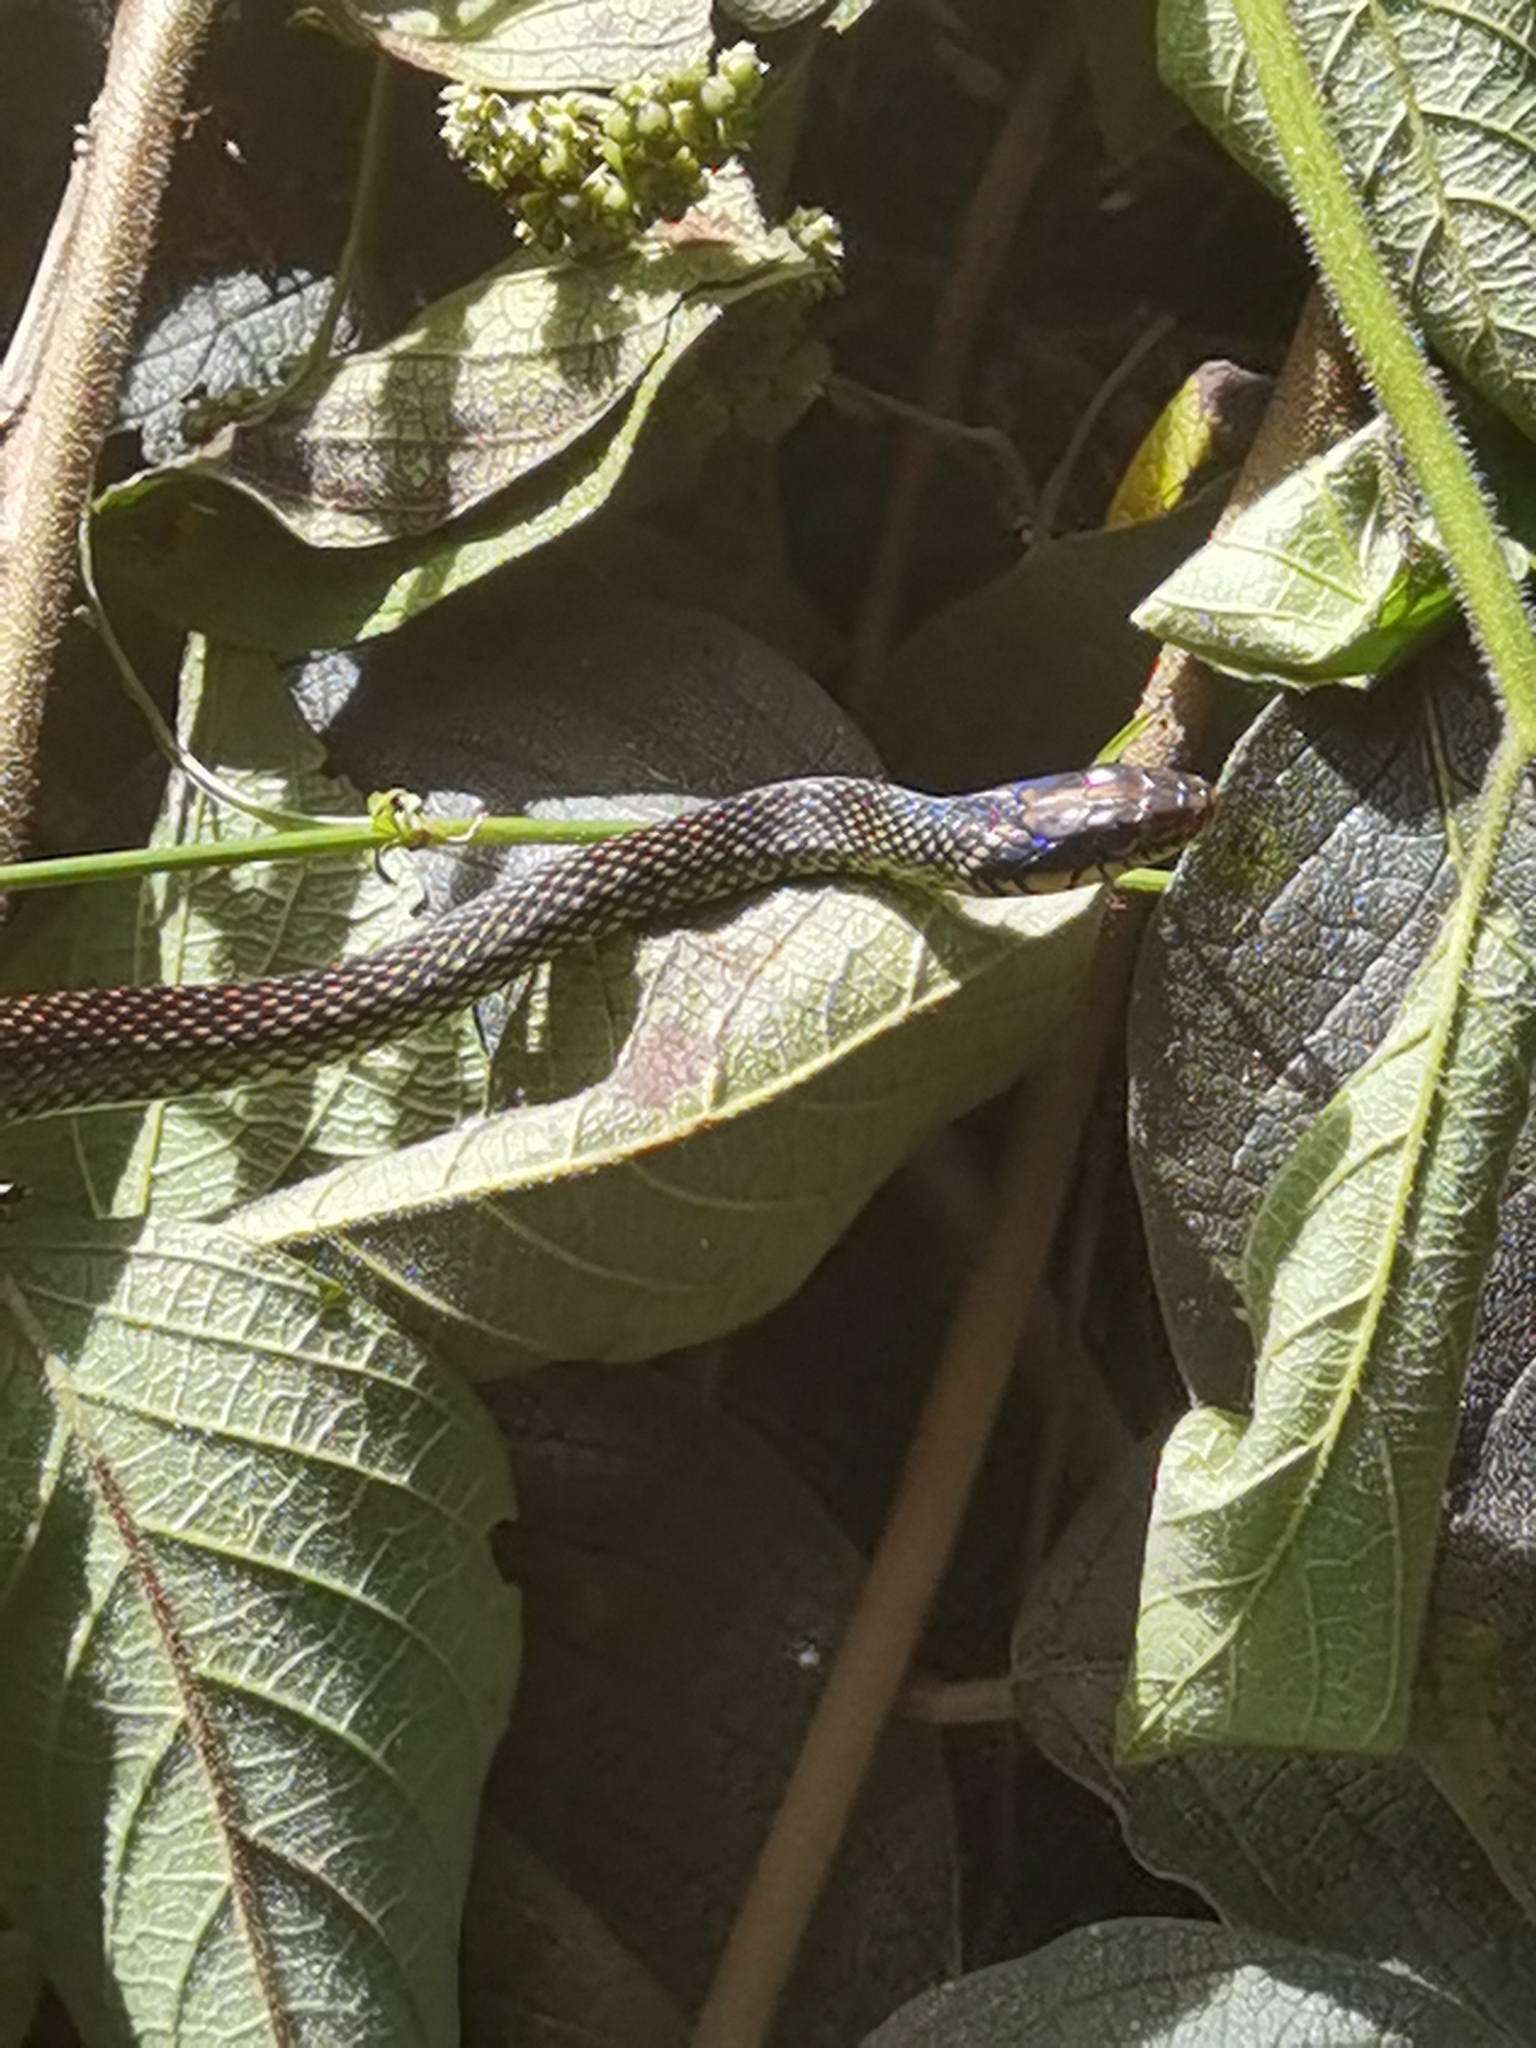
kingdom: Animalia
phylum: Chordata
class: Squamata
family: Colubridae
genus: Drymobius
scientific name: Drymobius margaritiferus
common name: Central american speckled racer
